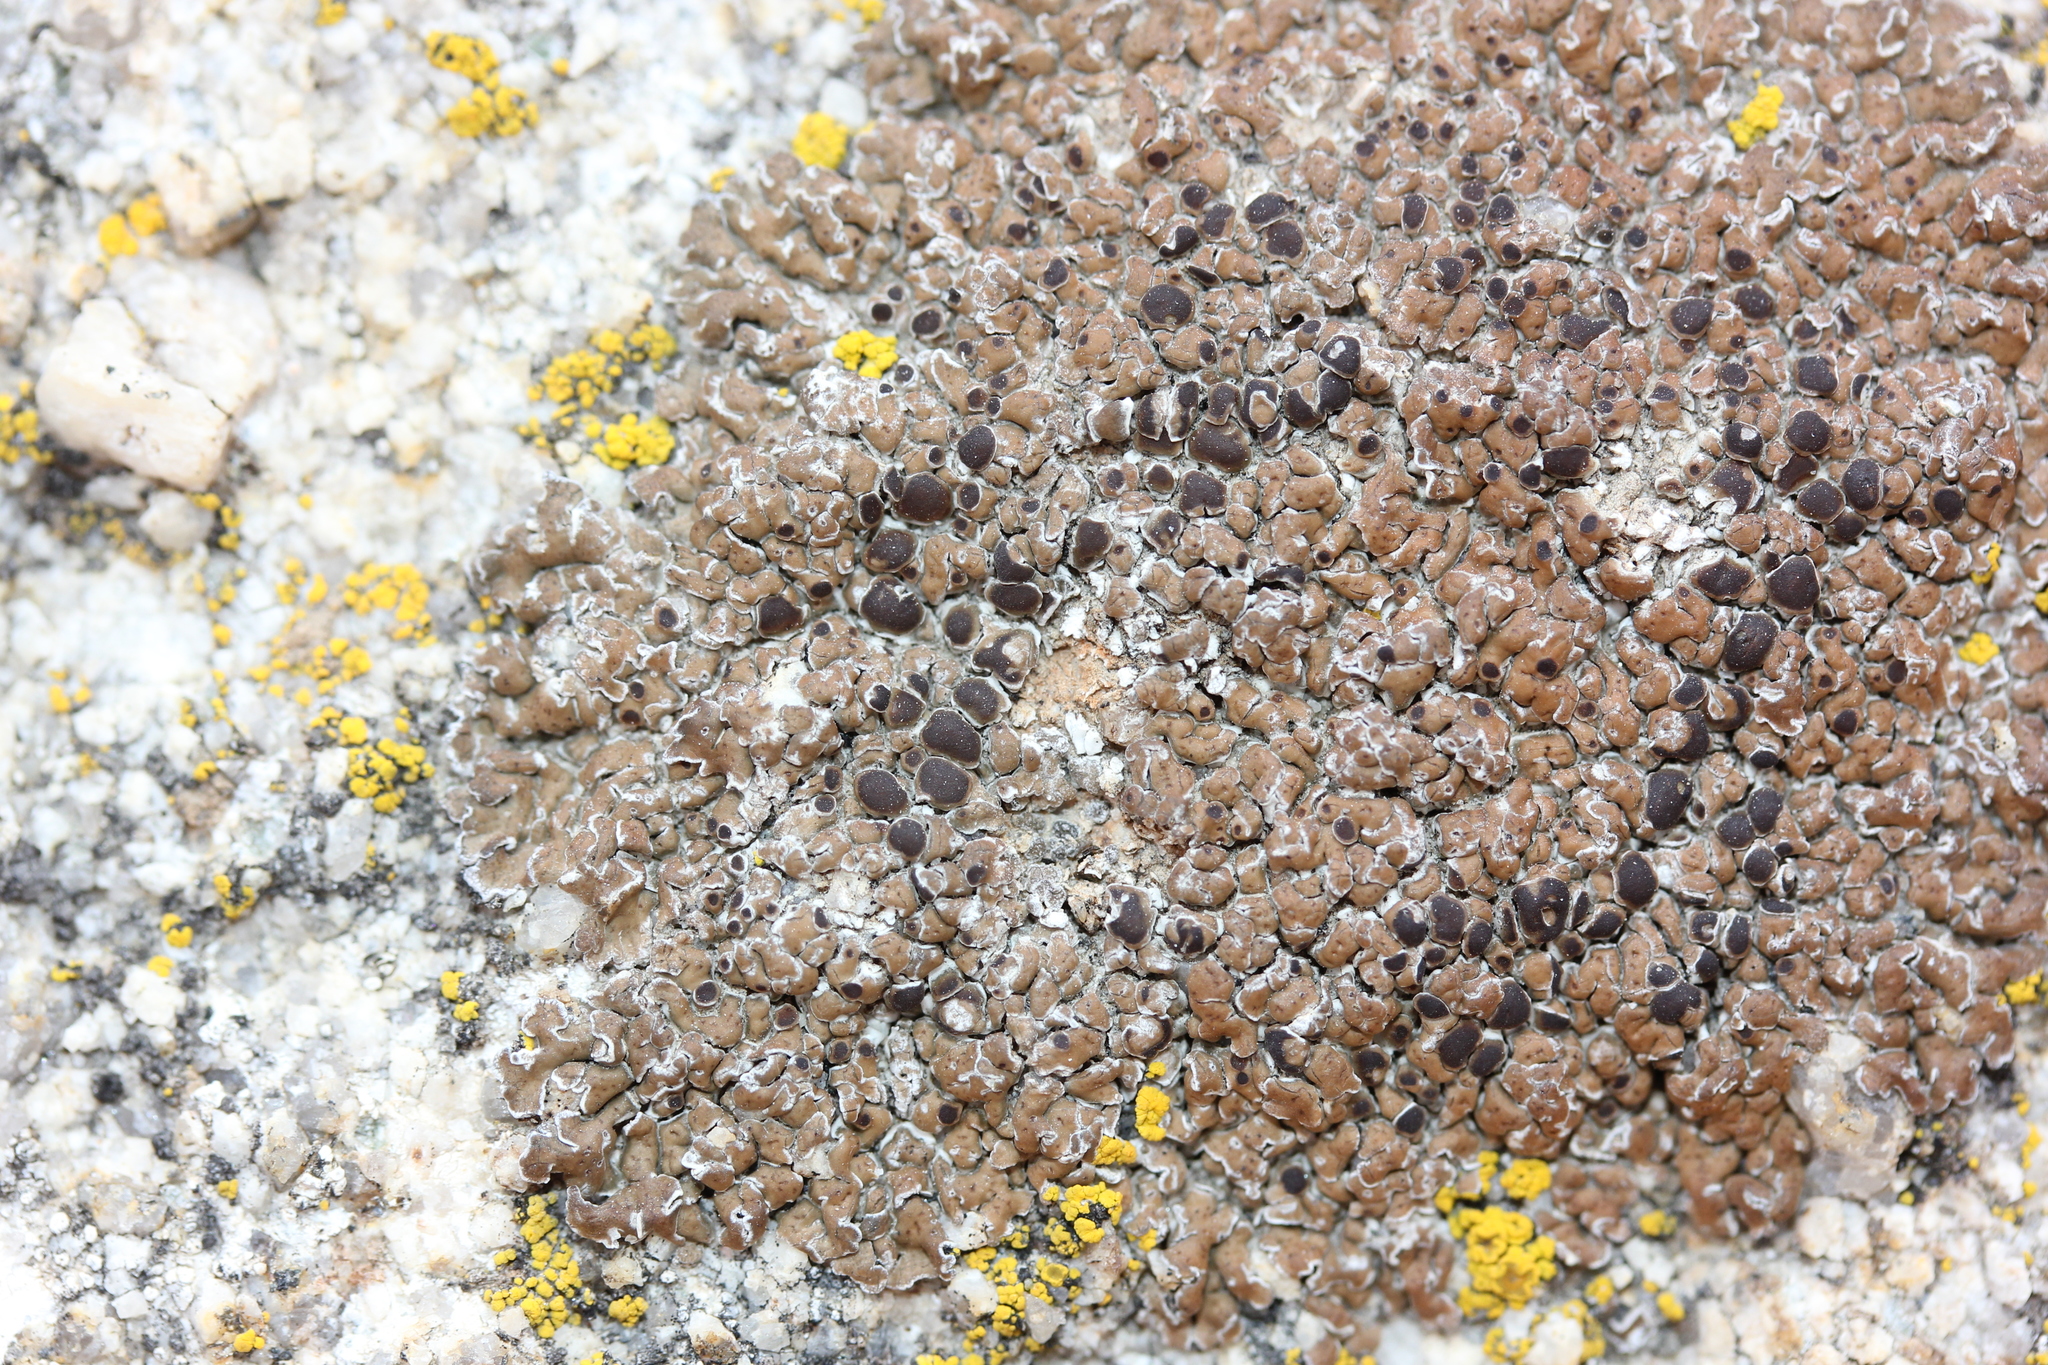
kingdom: Fungi
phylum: Ascomycota
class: Lecanoromycetes
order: Lecideales
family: Lecideaceae
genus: Lecidea
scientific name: Lecidea atrobrunnea
